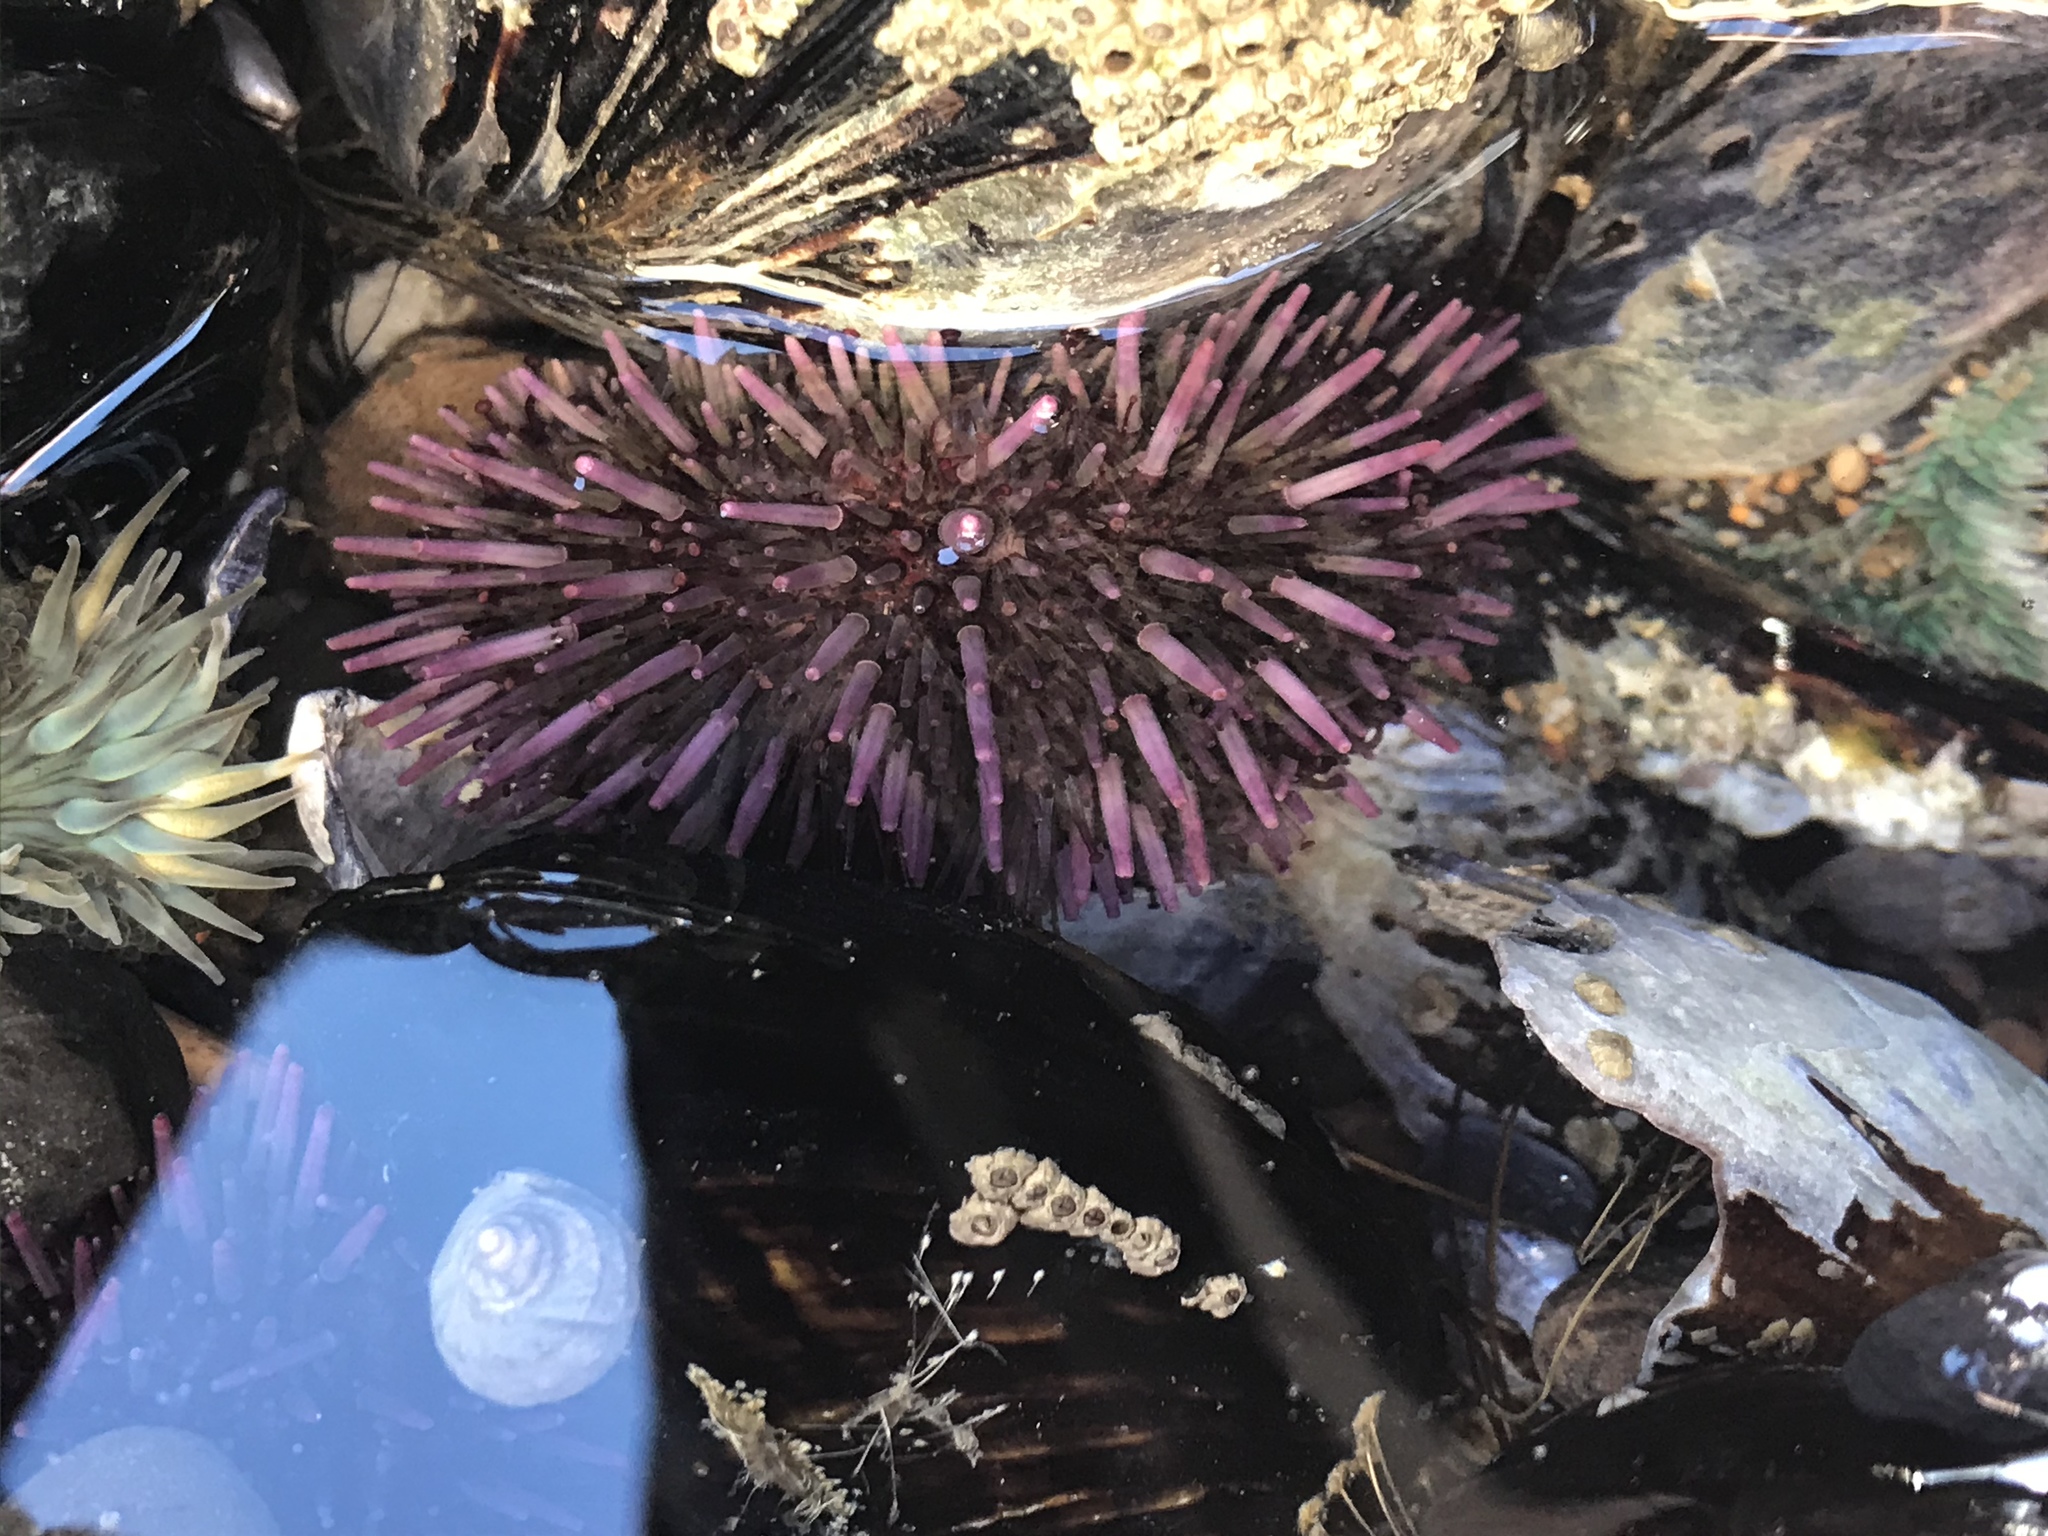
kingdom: Animalia
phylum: Echinodermata
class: Echinoidea
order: Camarodonta
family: Strongylocentrotidae
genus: Strongylocentrotus
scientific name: Strongylocentrotus purpuratus
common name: Purple sea urchin
